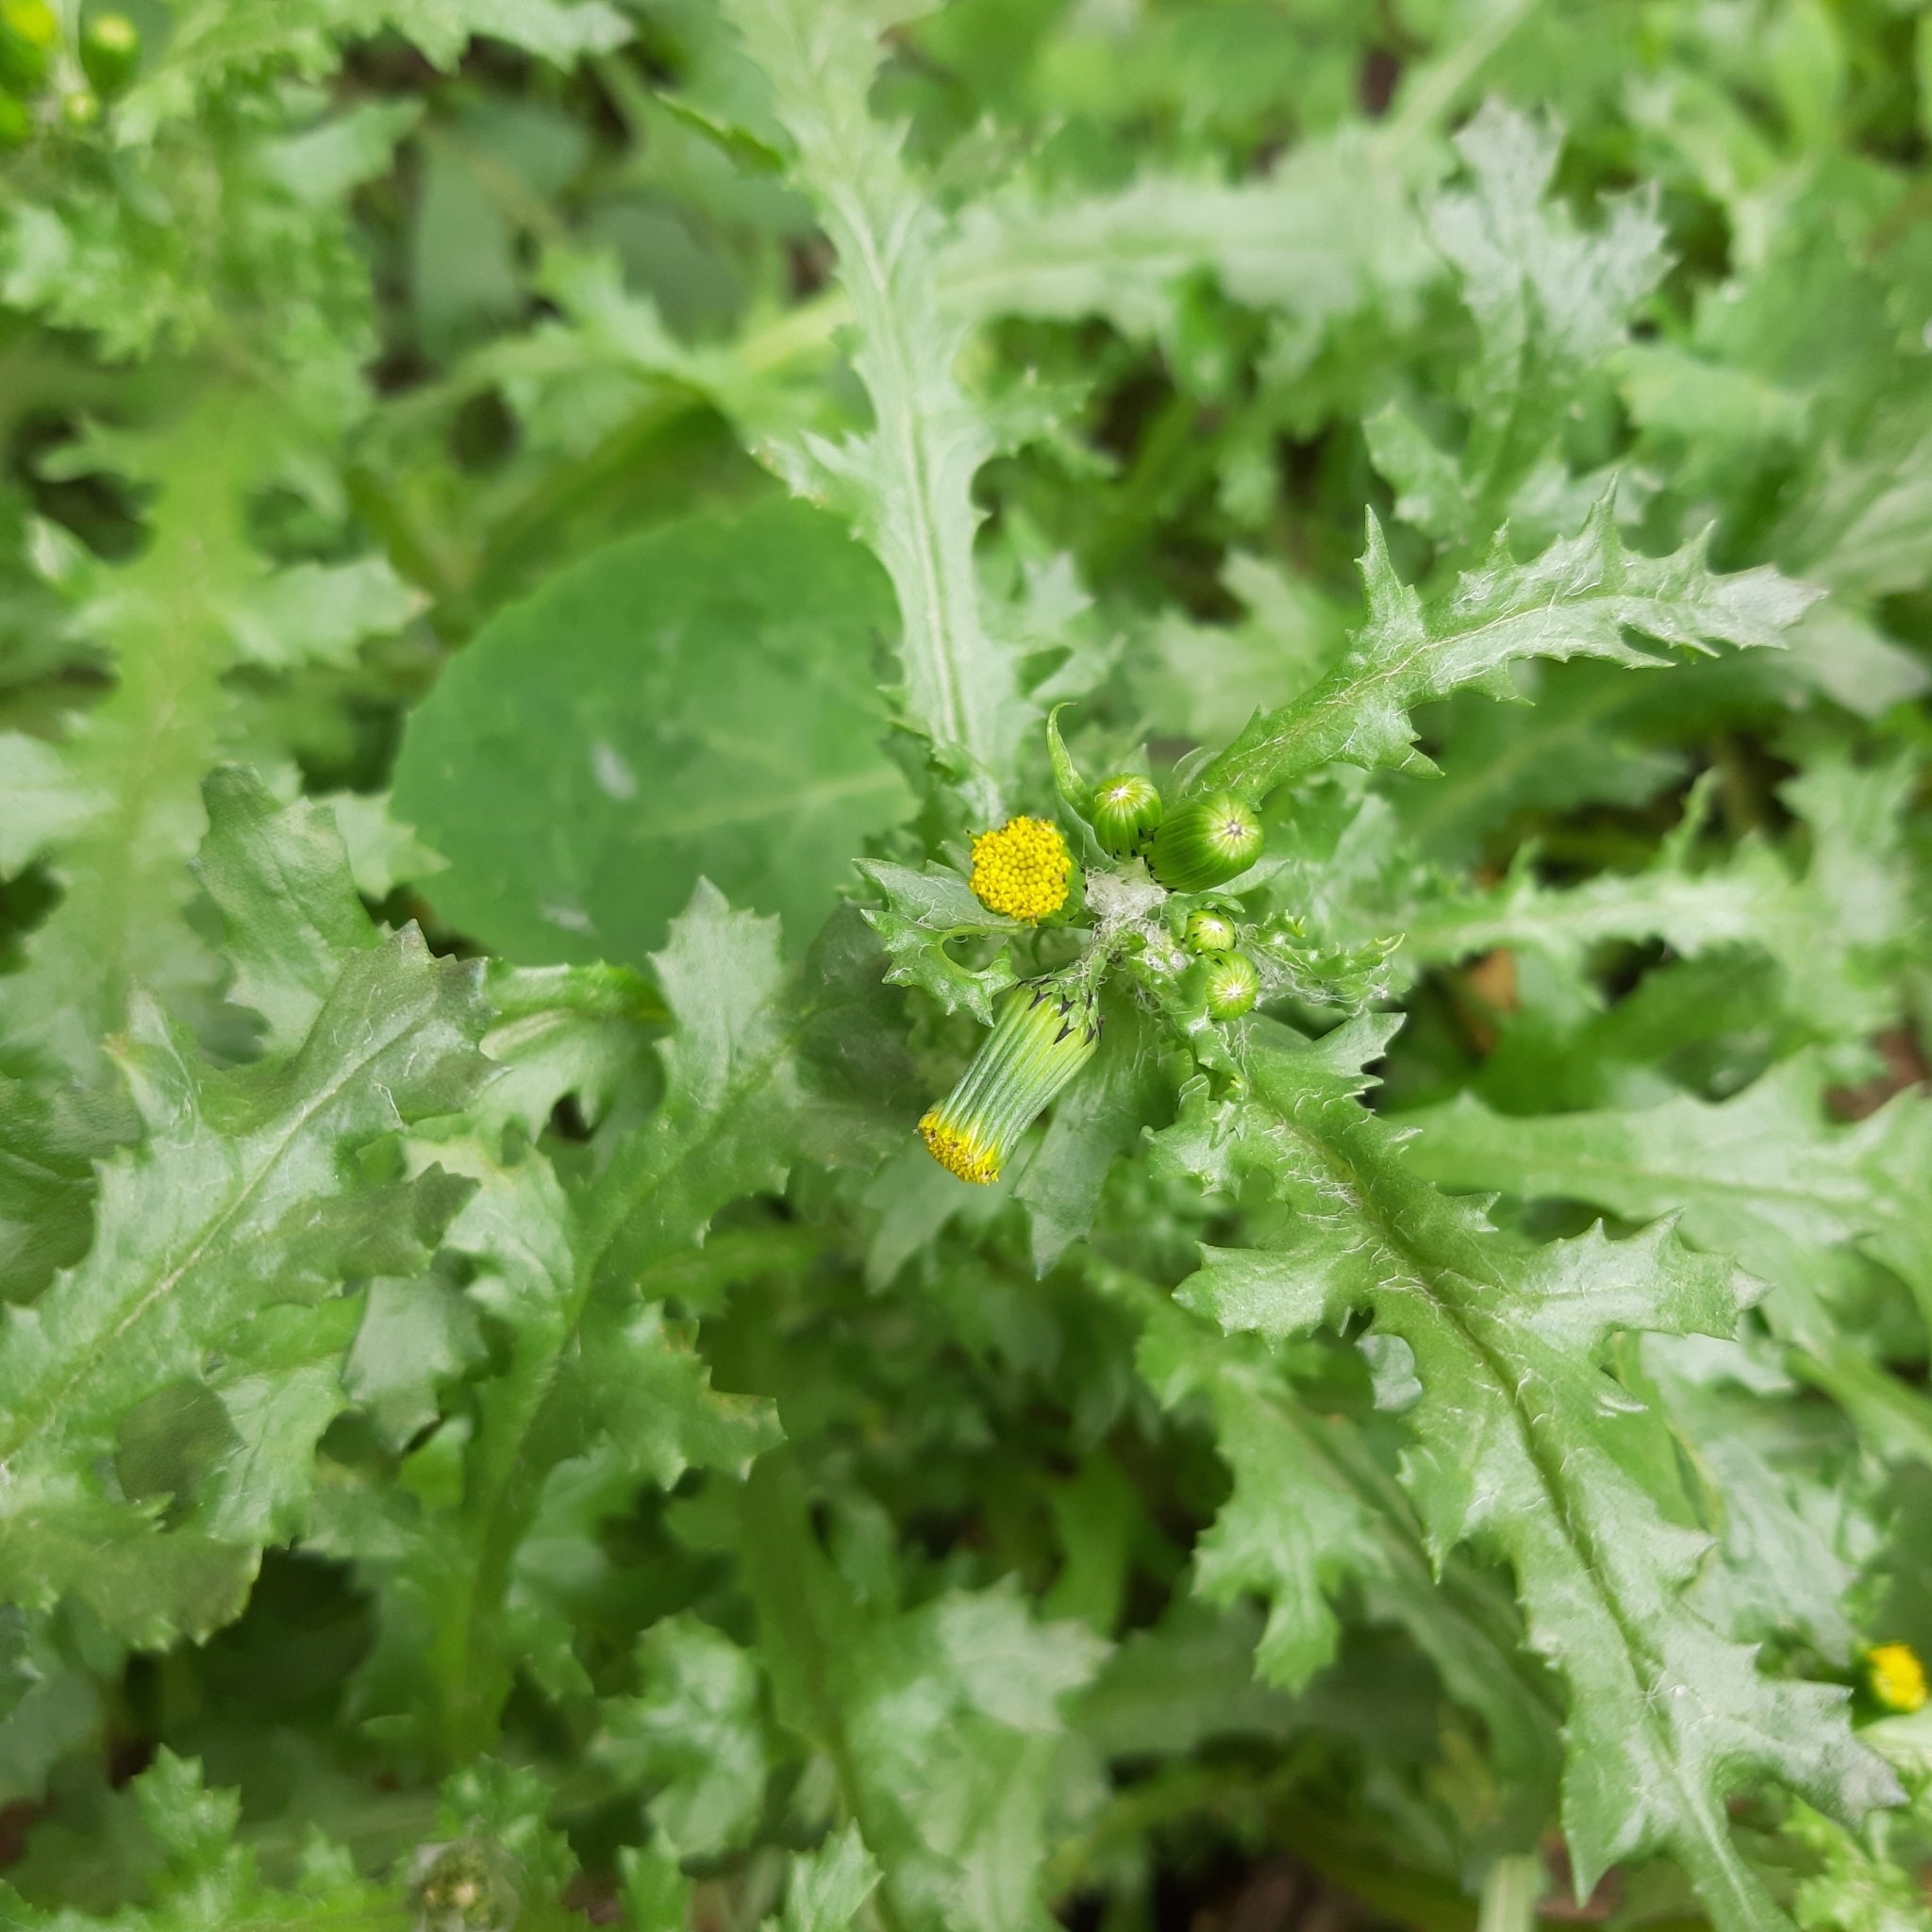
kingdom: Plantae
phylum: Tracheophyta
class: Magnoliopsida
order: Asterales
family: Asteraceae
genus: Senecio
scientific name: Senecio vulgaris
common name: Old-man-in-the-spring
